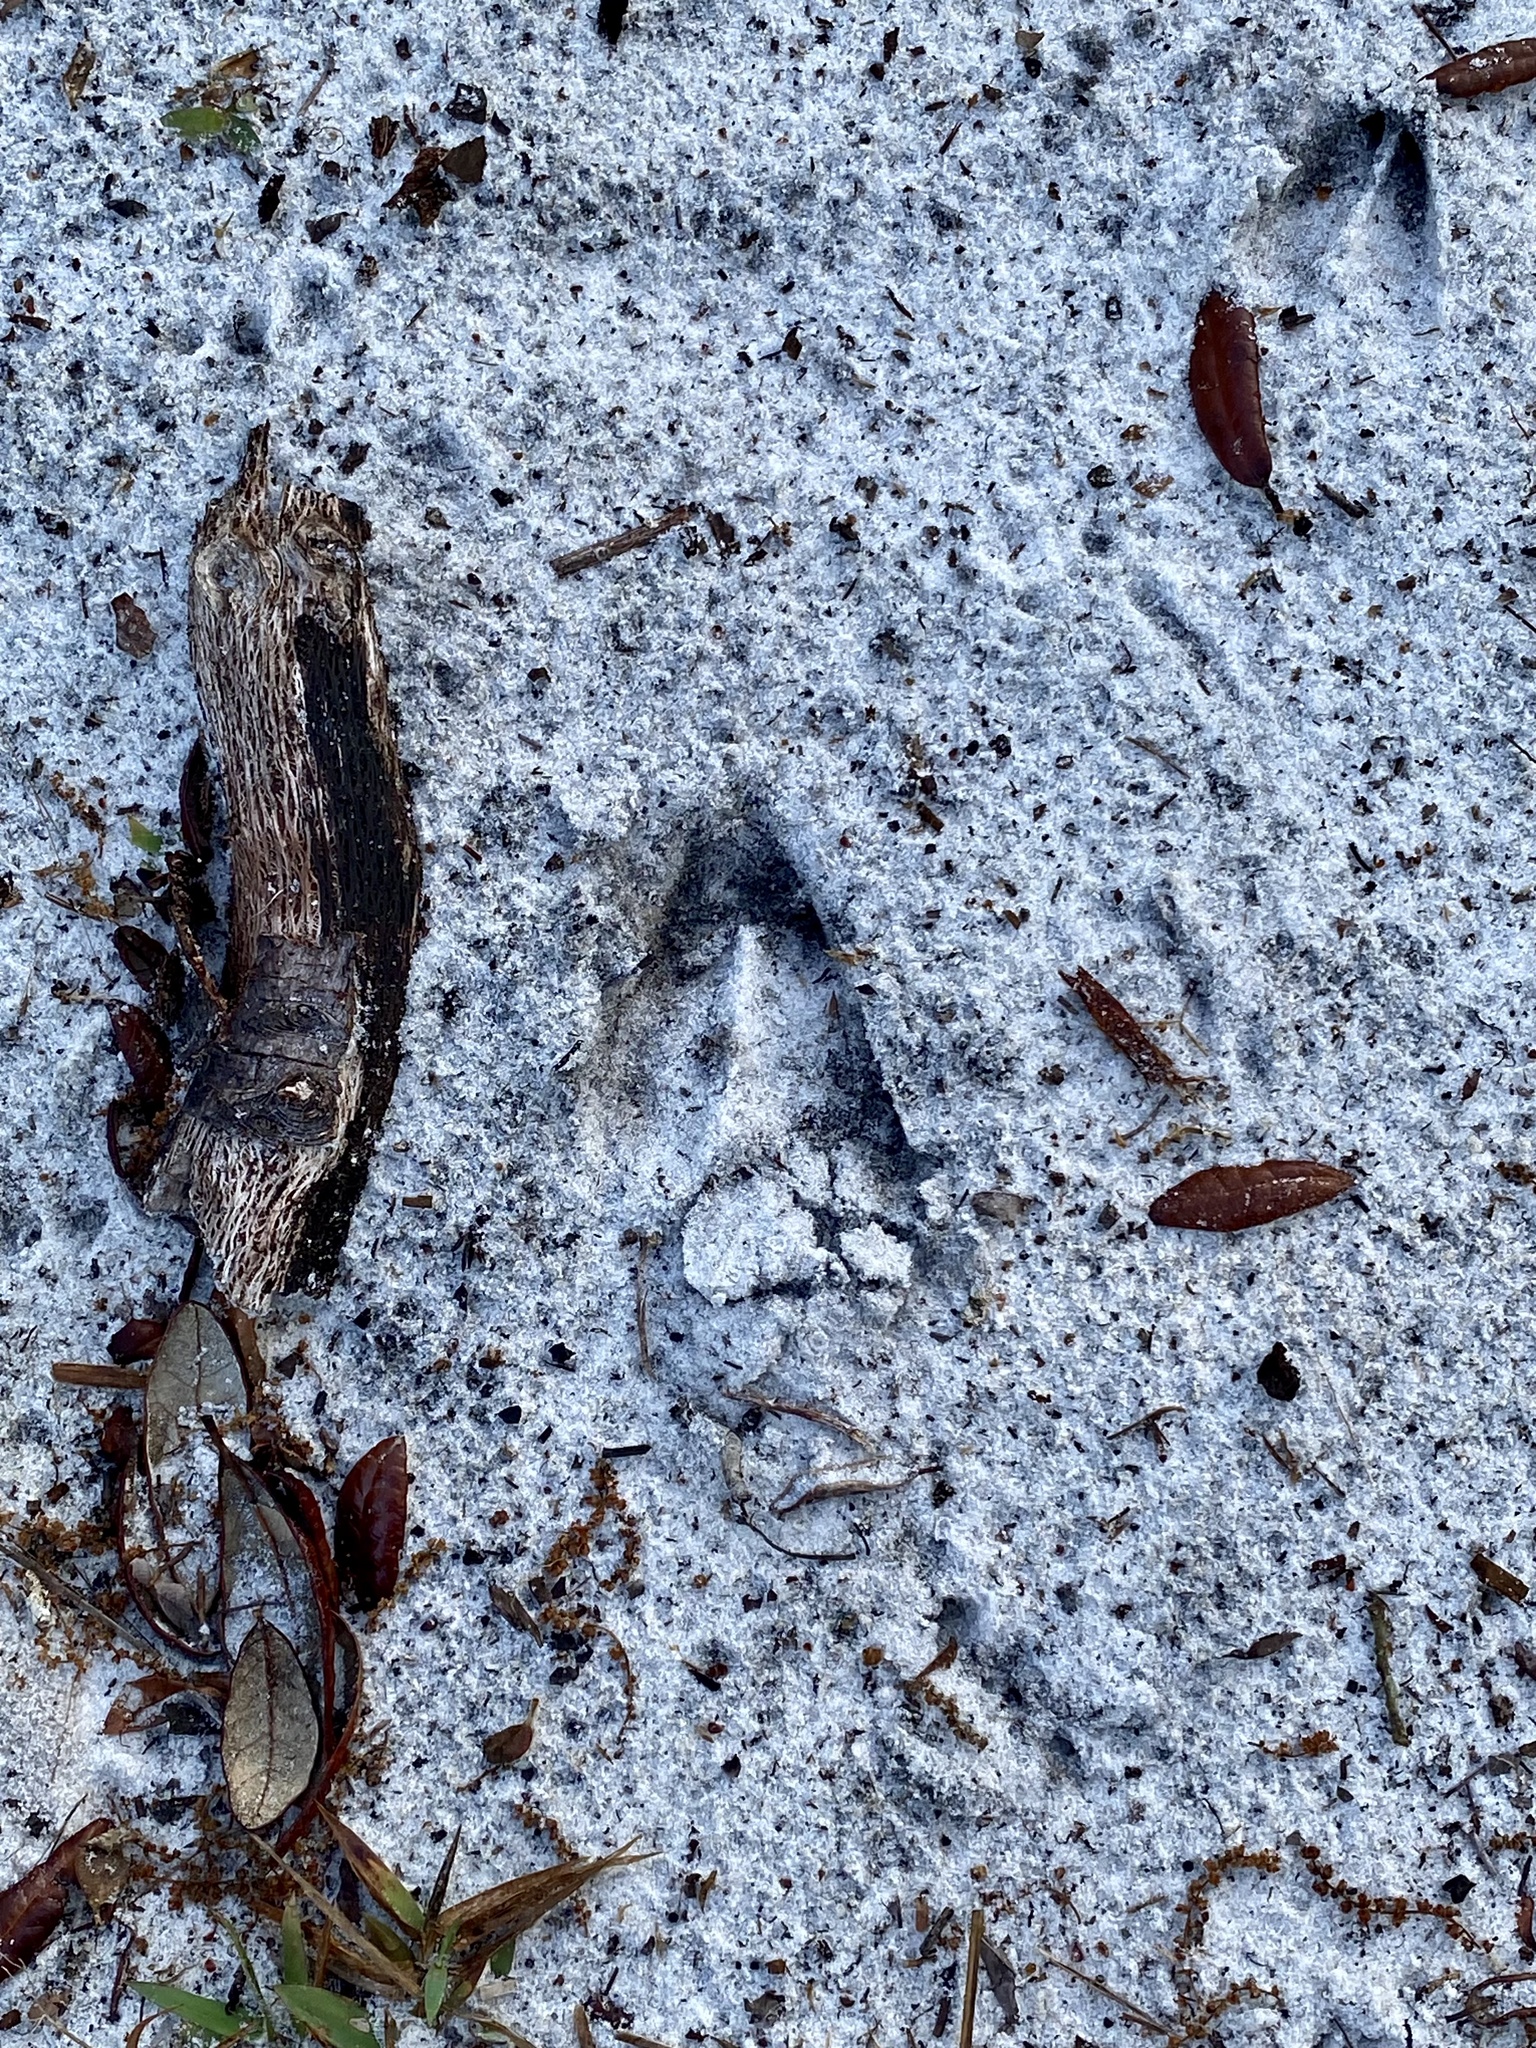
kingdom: Animalia
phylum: Chordata
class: Mammalia
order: Artiodactyla
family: Cervidae
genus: Odocoileus
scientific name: Odocoileus virginianus
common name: White-tailed deer
